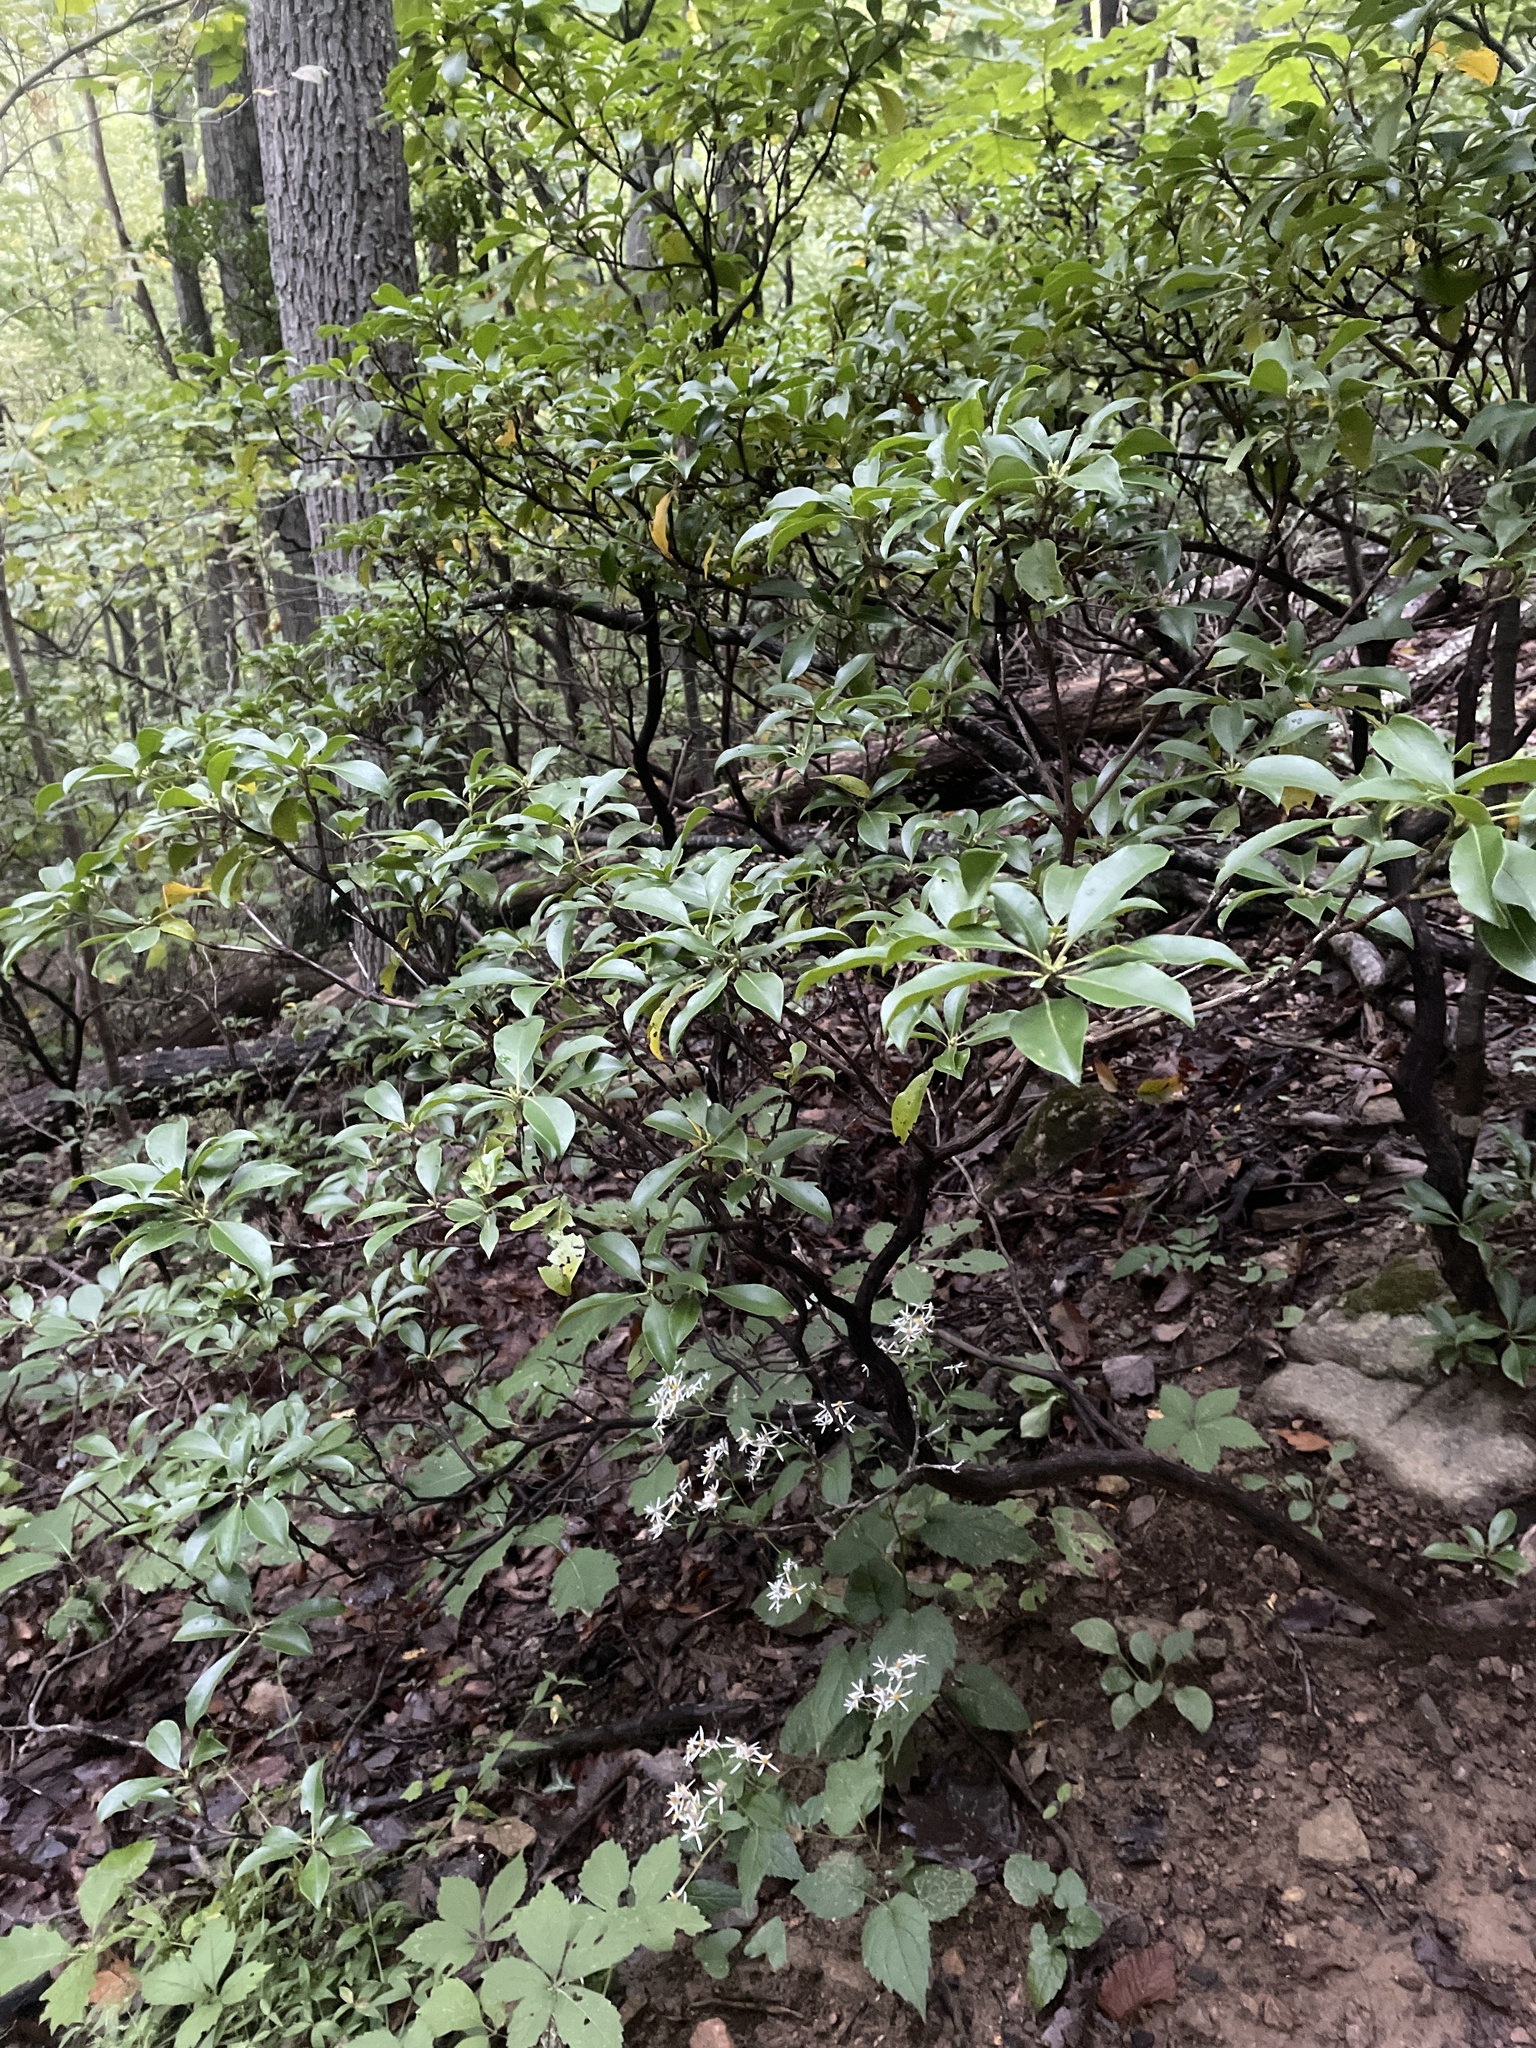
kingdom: Plantae
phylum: Tracheophyta
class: Magnoliopsida
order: Ericales
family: Ericaceae
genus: Kalmia
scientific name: Kalmia latifolia
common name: Mountain-laurel
